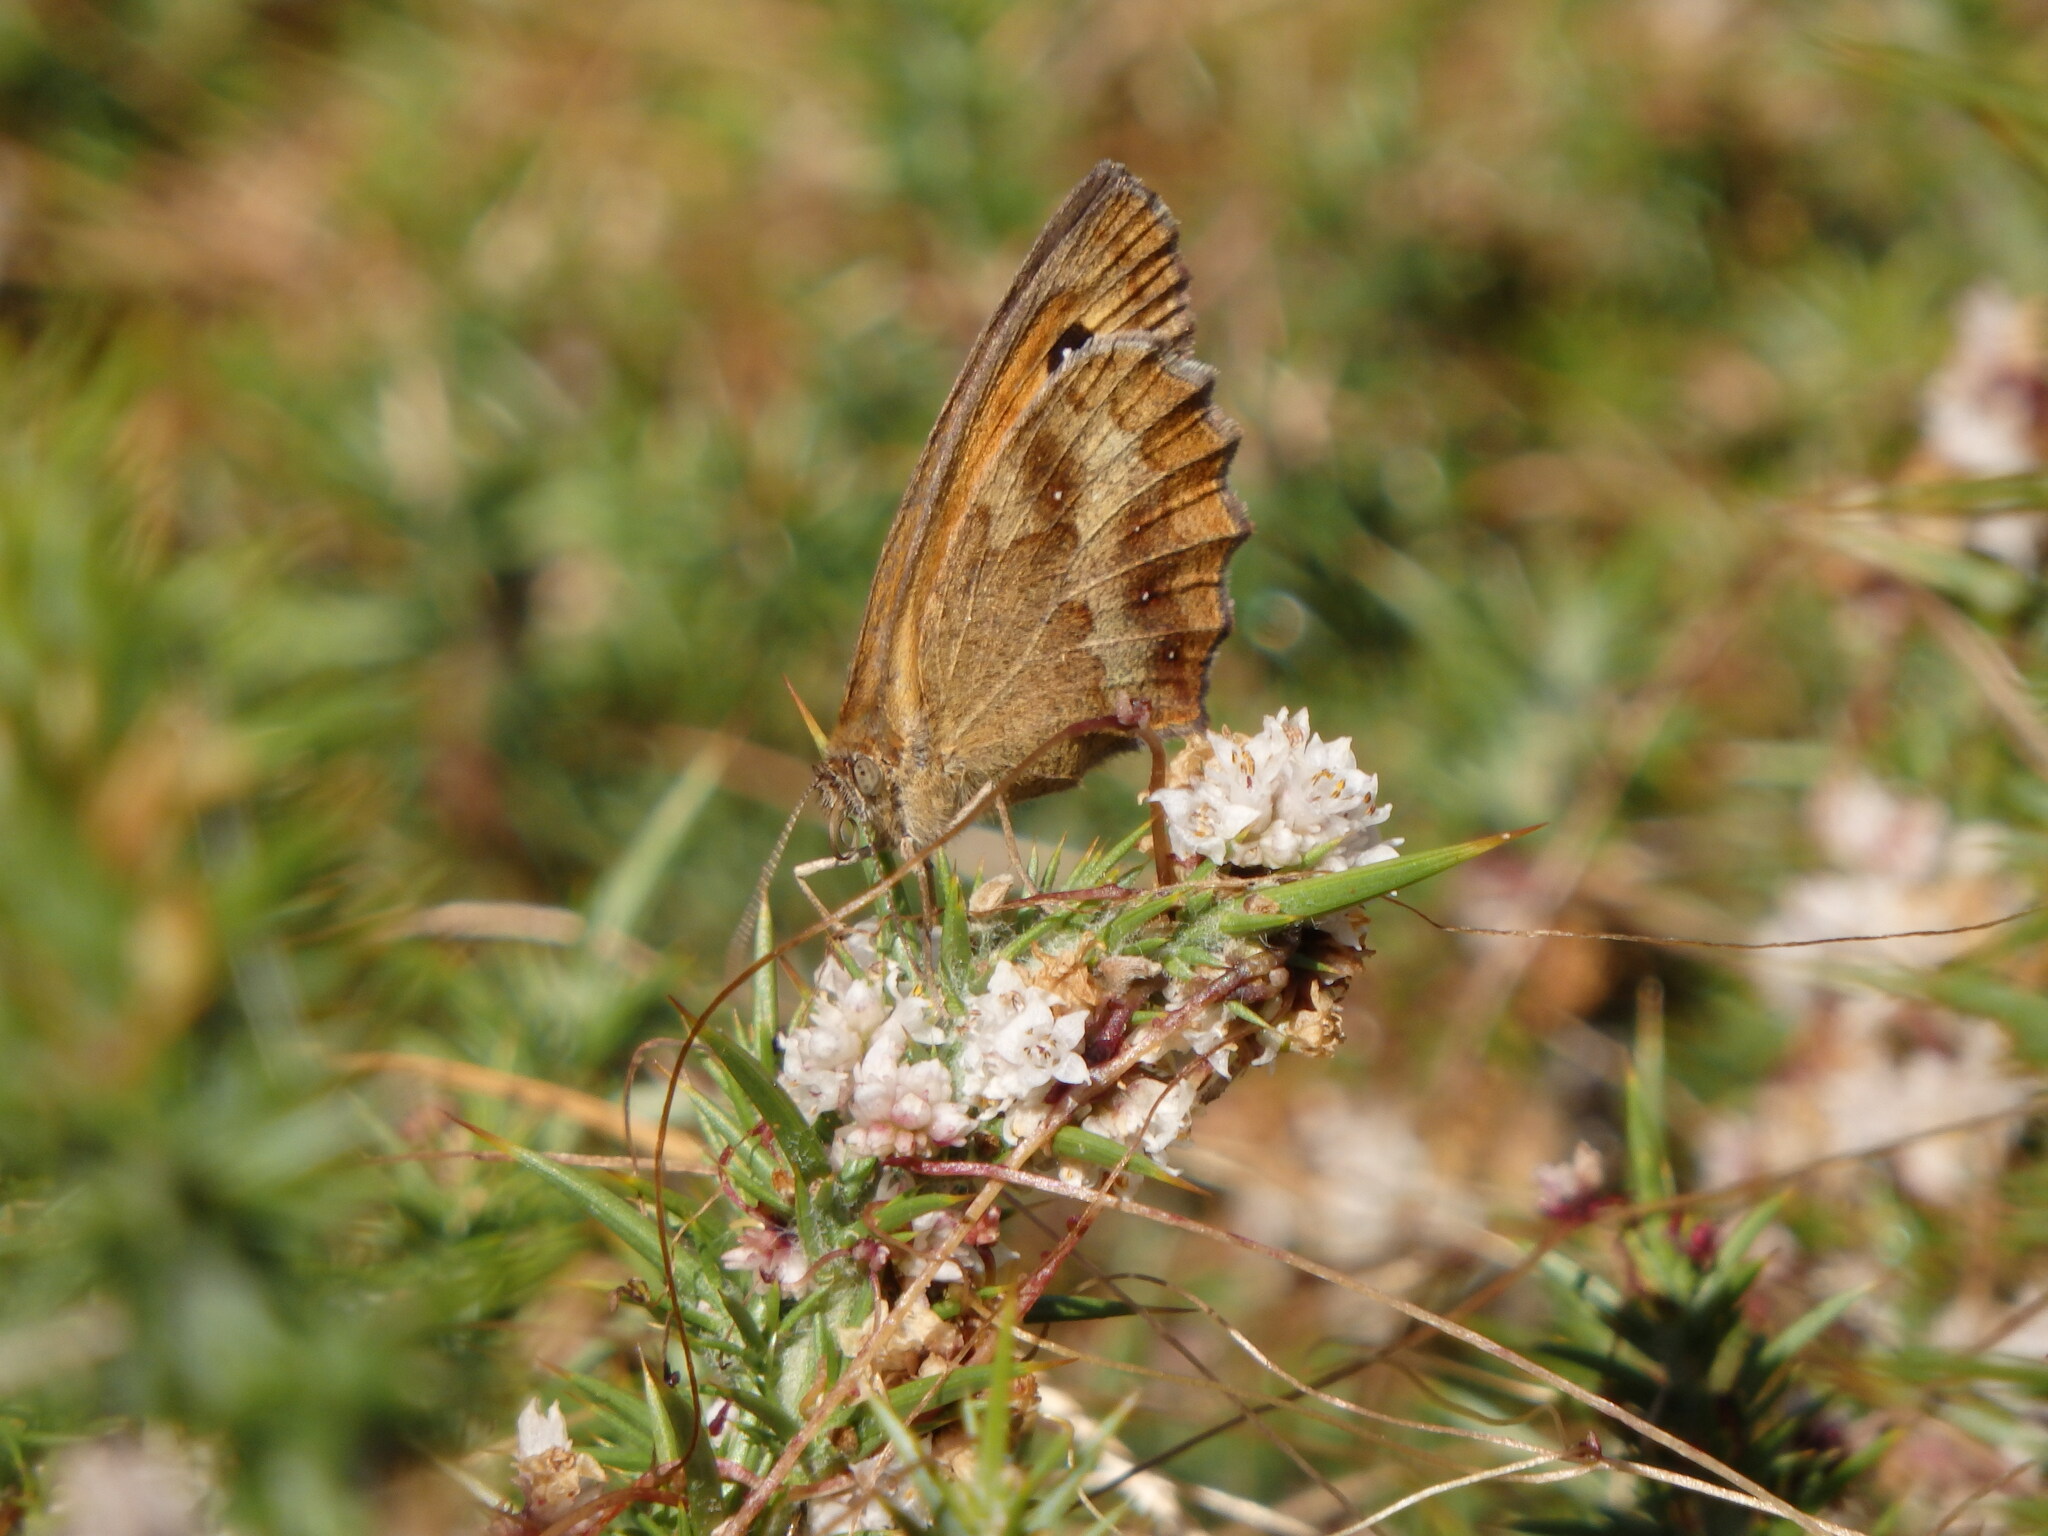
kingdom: Animalia
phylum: Arthropoda
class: Insecta
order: Lepidoptera
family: Nymphalidae
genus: Pyronia
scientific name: Pyronia tithonus
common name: Gatekeeper
